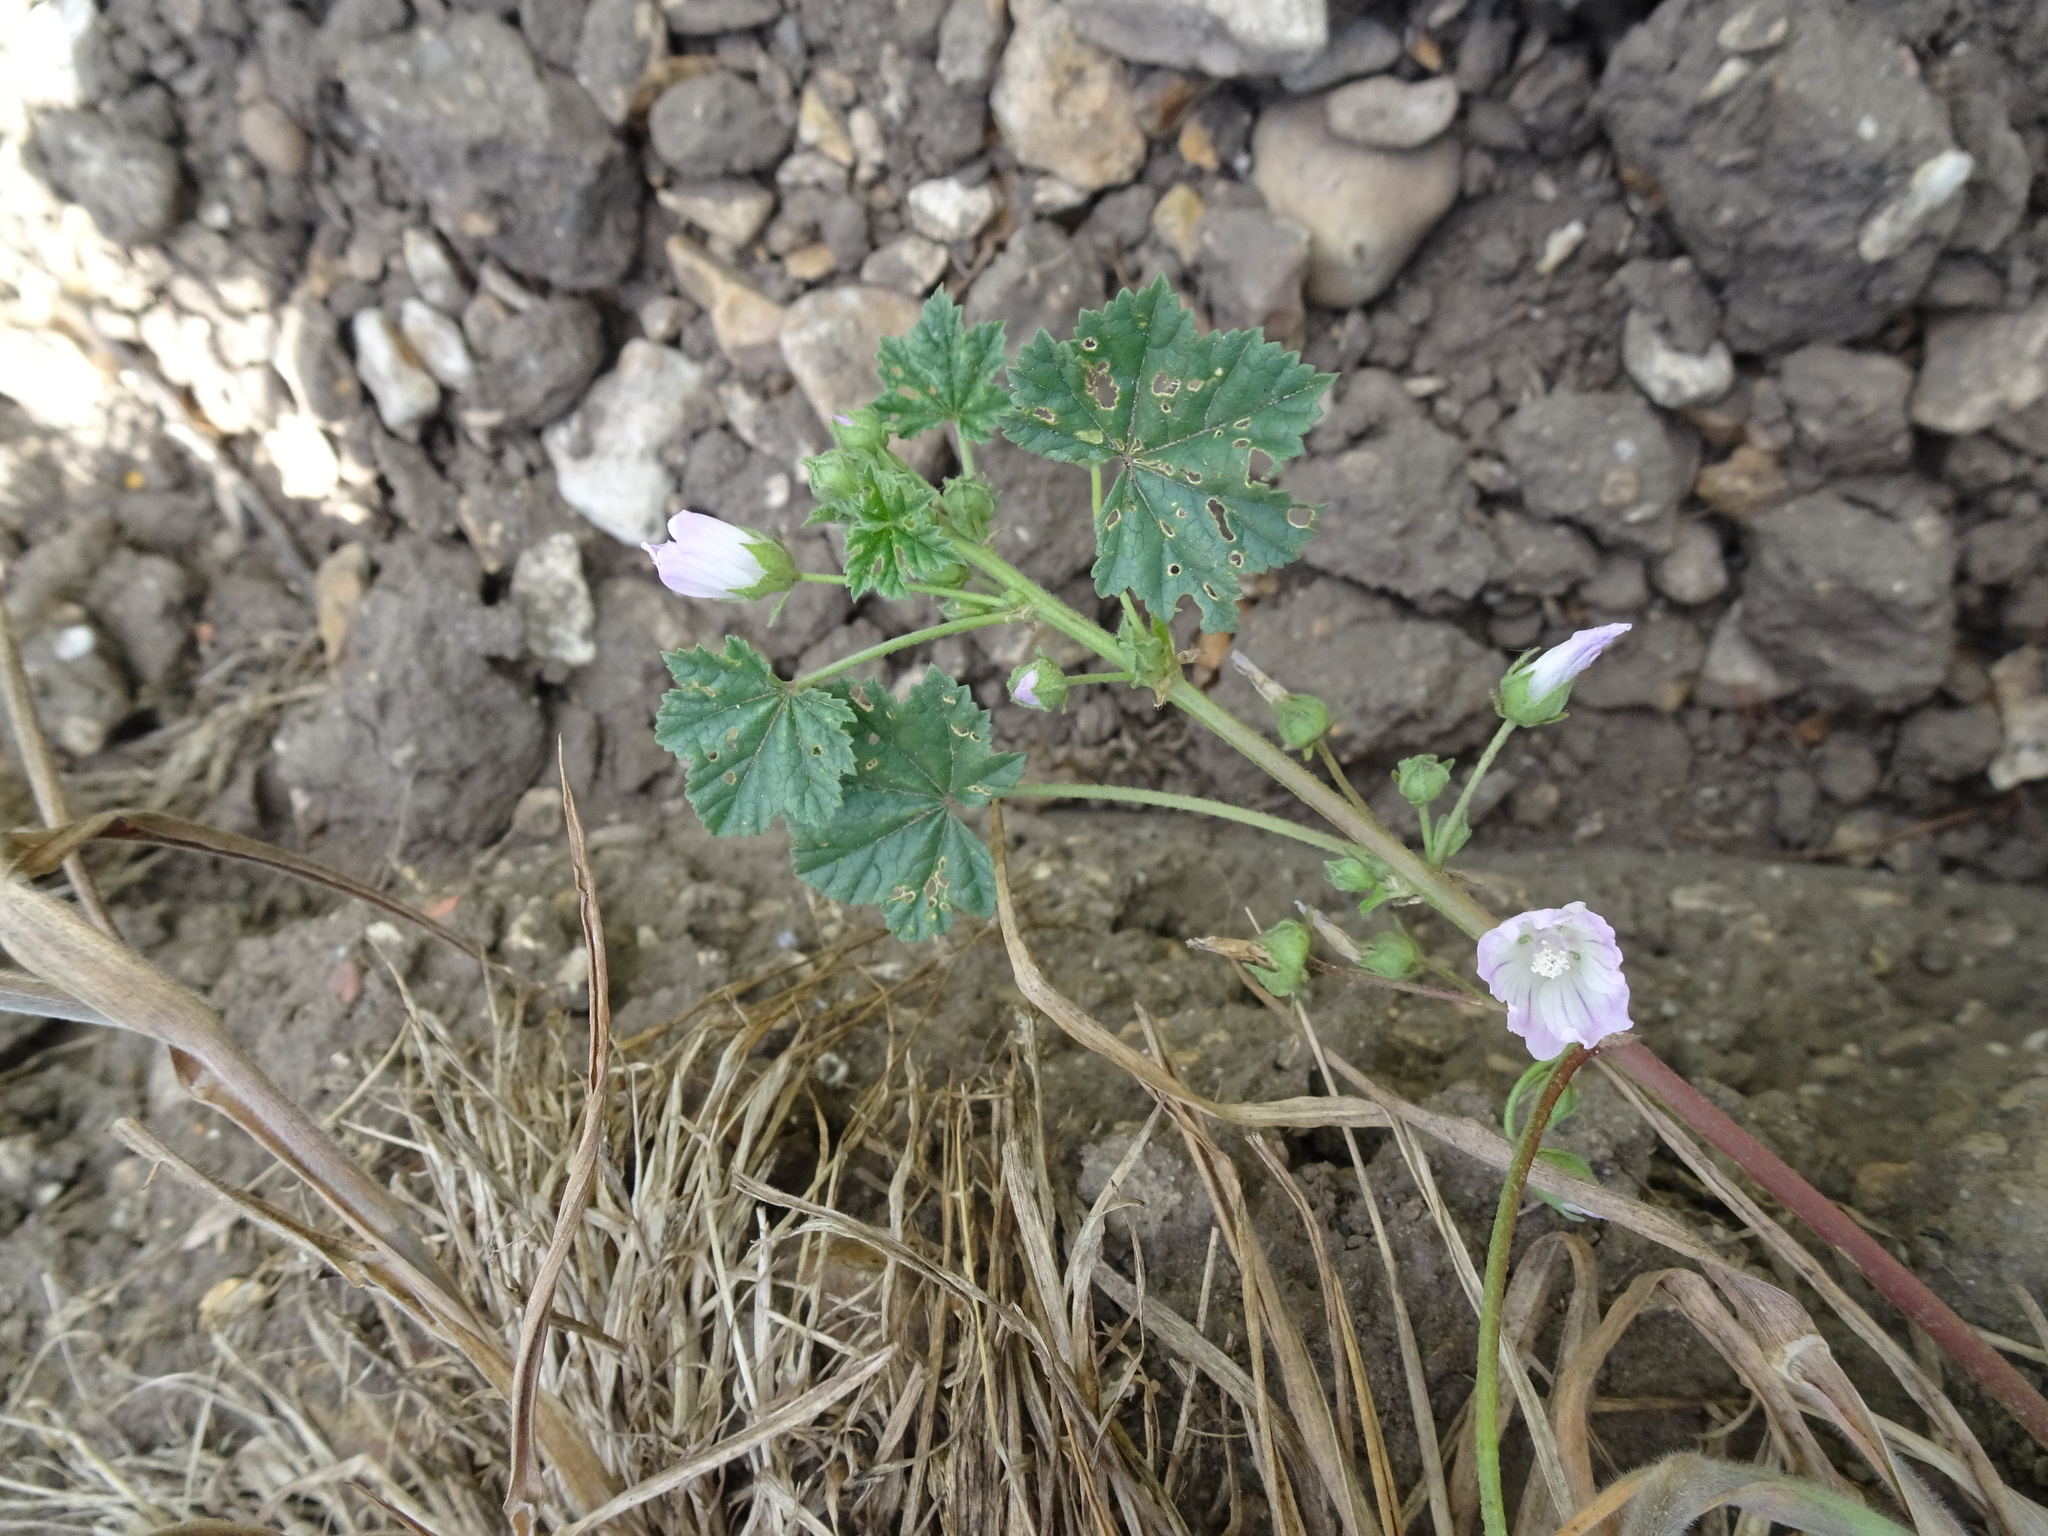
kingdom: Plantae
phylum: Tracheophyta
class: Magnoliopsida
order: Malvales
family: Malvaceae
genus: Malva
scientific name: Malva neglecta
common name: Common mallow
